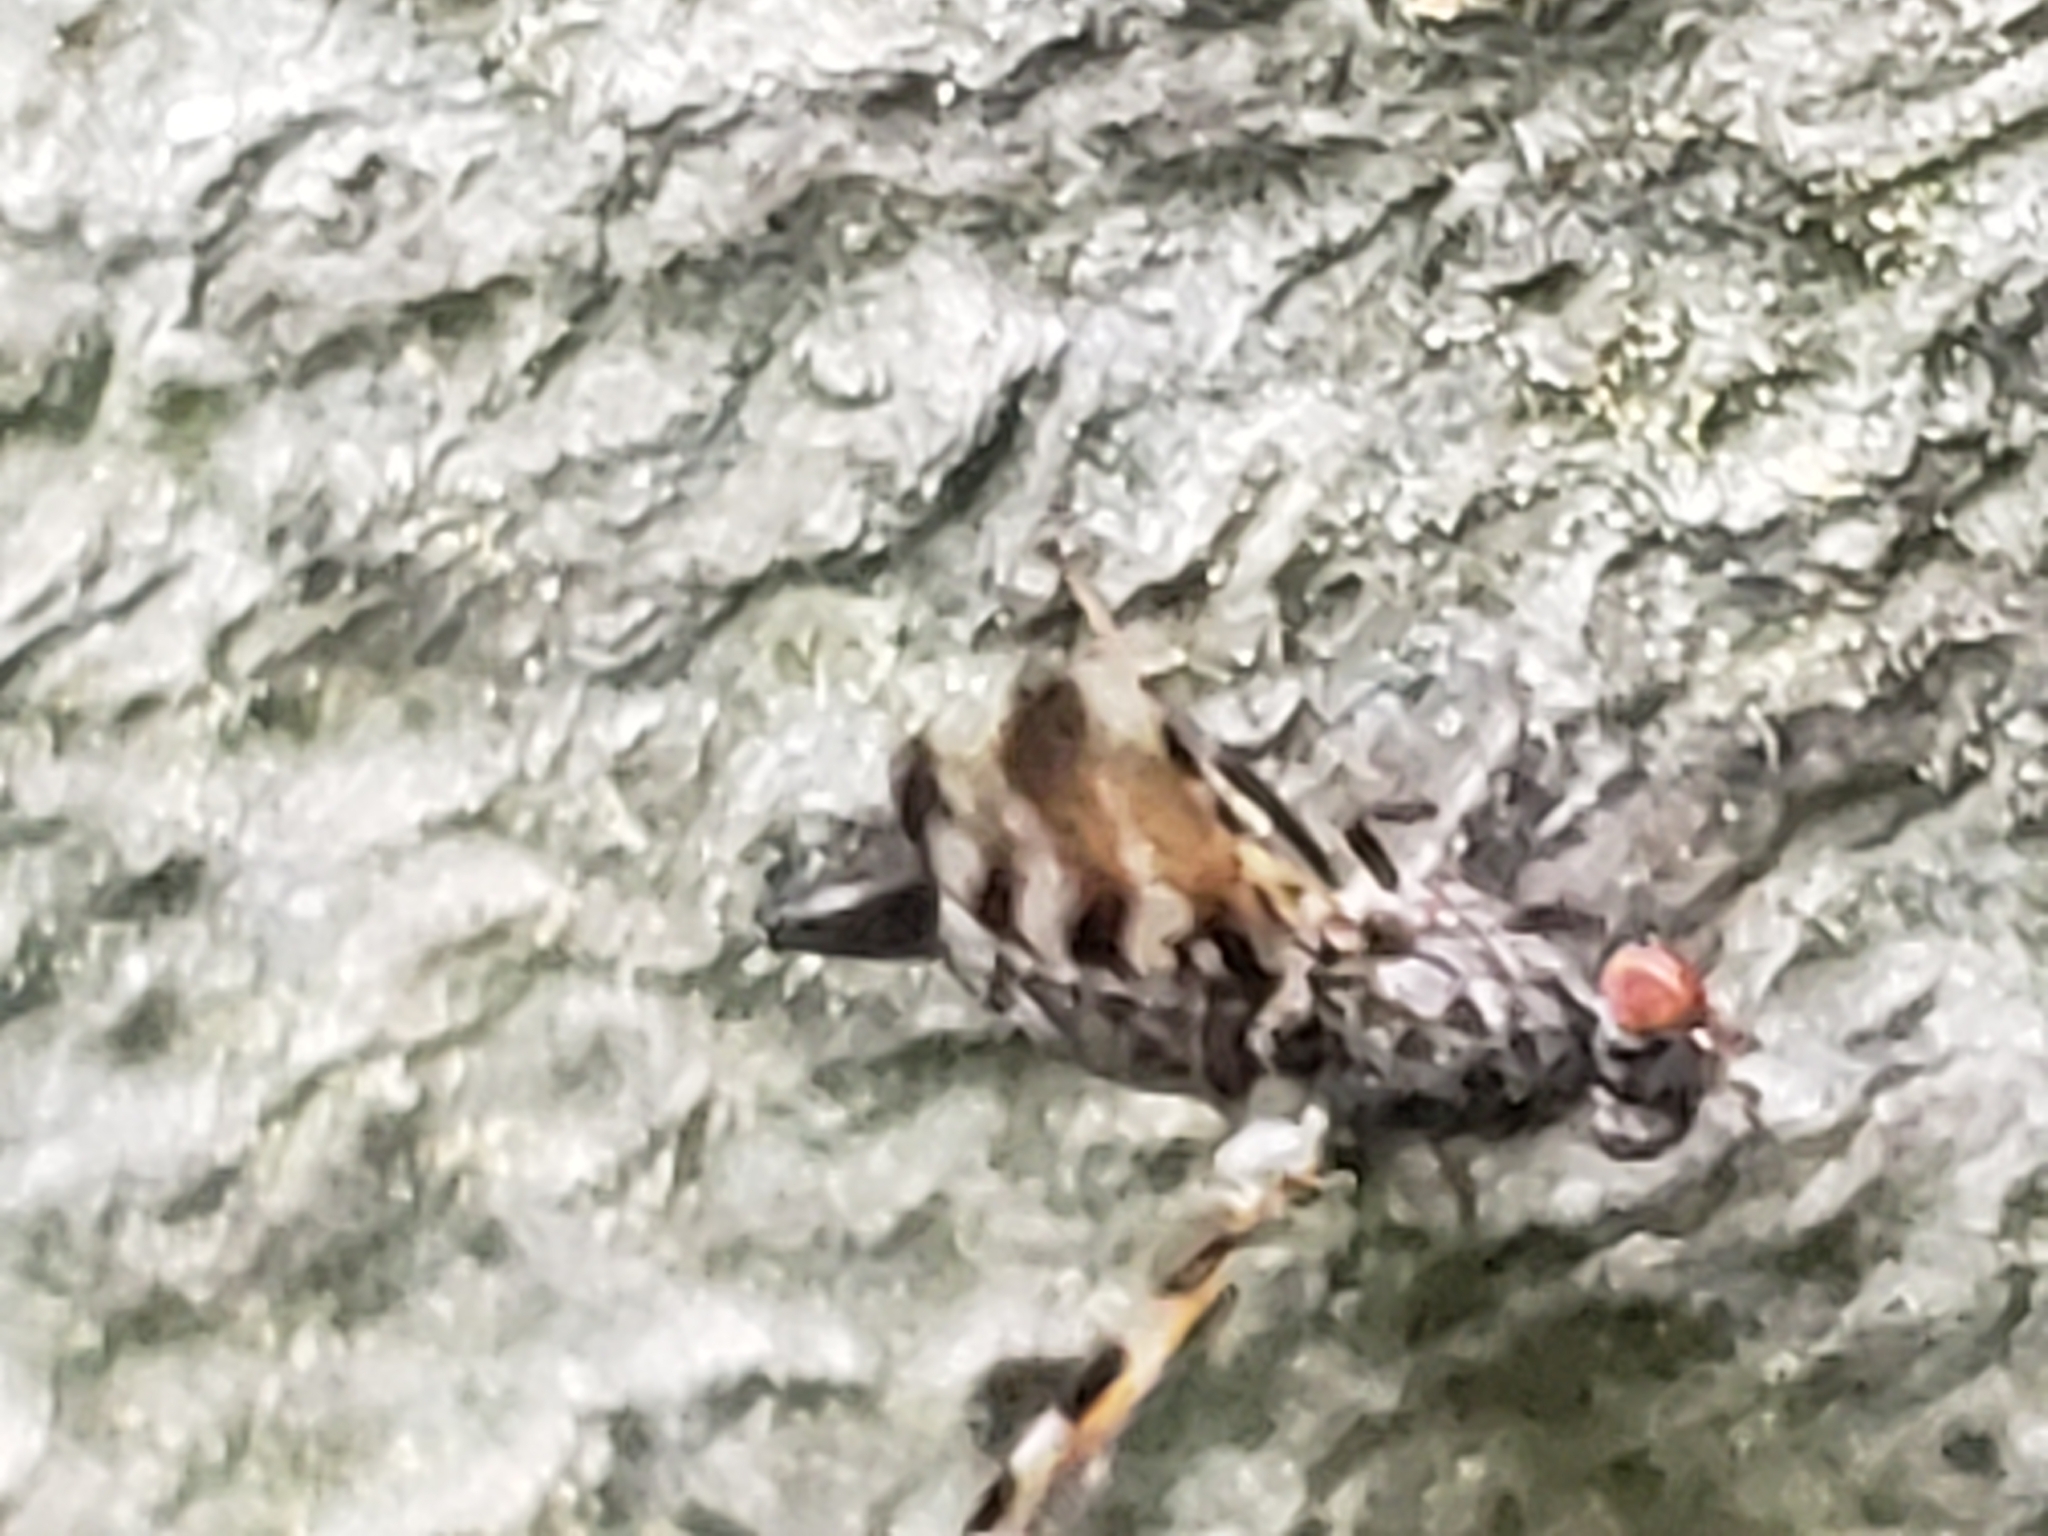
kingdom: Animalia
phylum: Arthropoda
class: Insecta
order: Diptera
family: Ulidiidae
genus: Pseudotephritis
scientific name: Pseudotephritis vau
